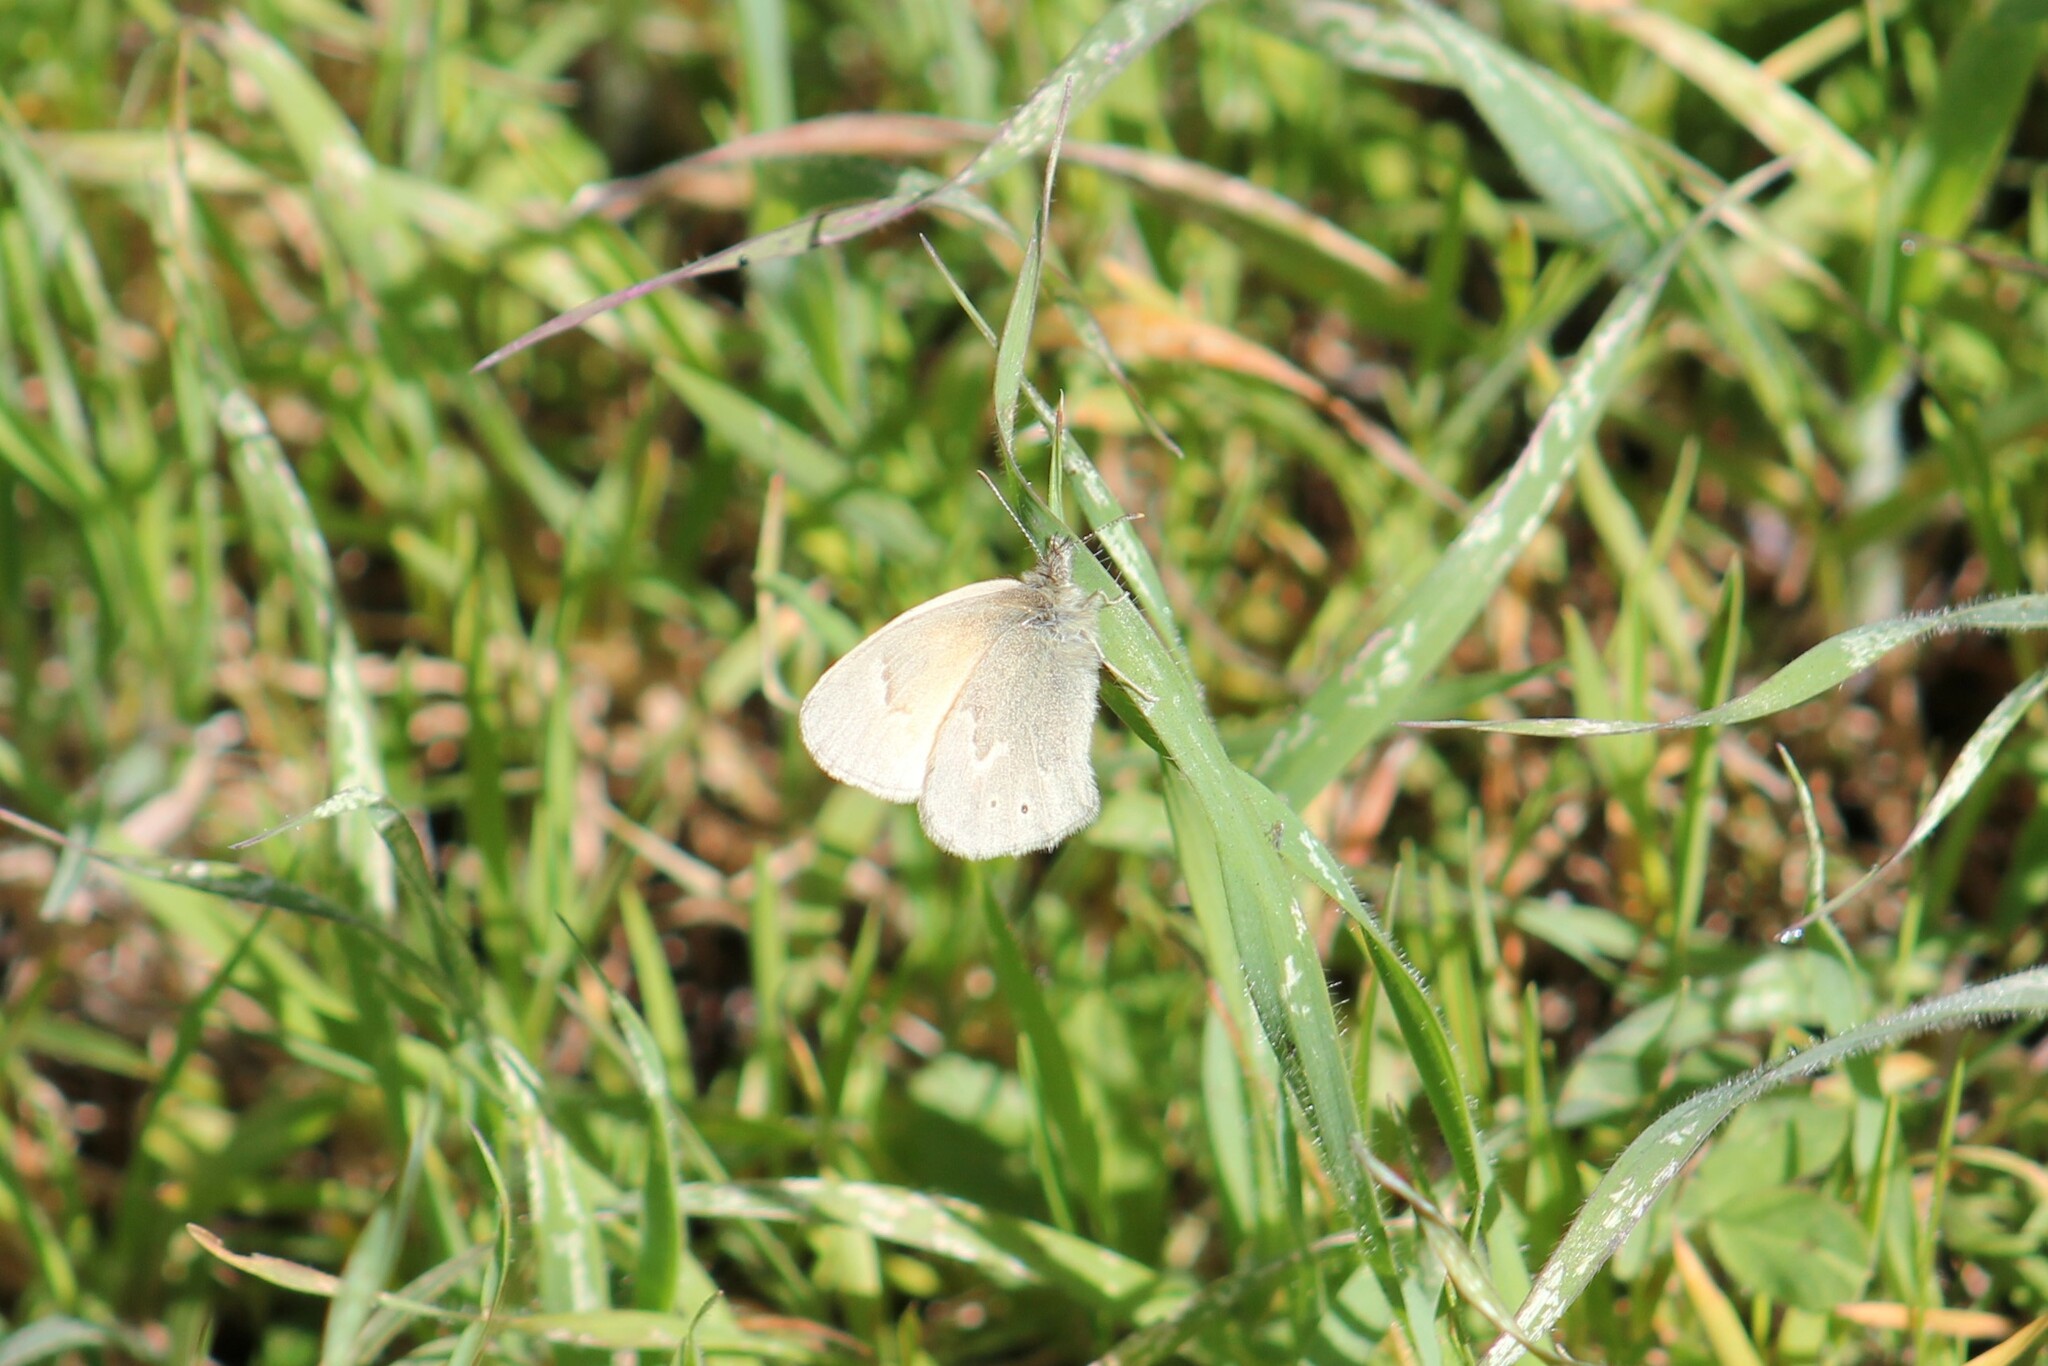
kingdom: Animalia
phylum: Arthropoda
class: Insecta
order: Lepidoptera
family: Nymphalidae
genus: Coenonympha
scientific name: Coenonympha california
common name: Common ringlet
